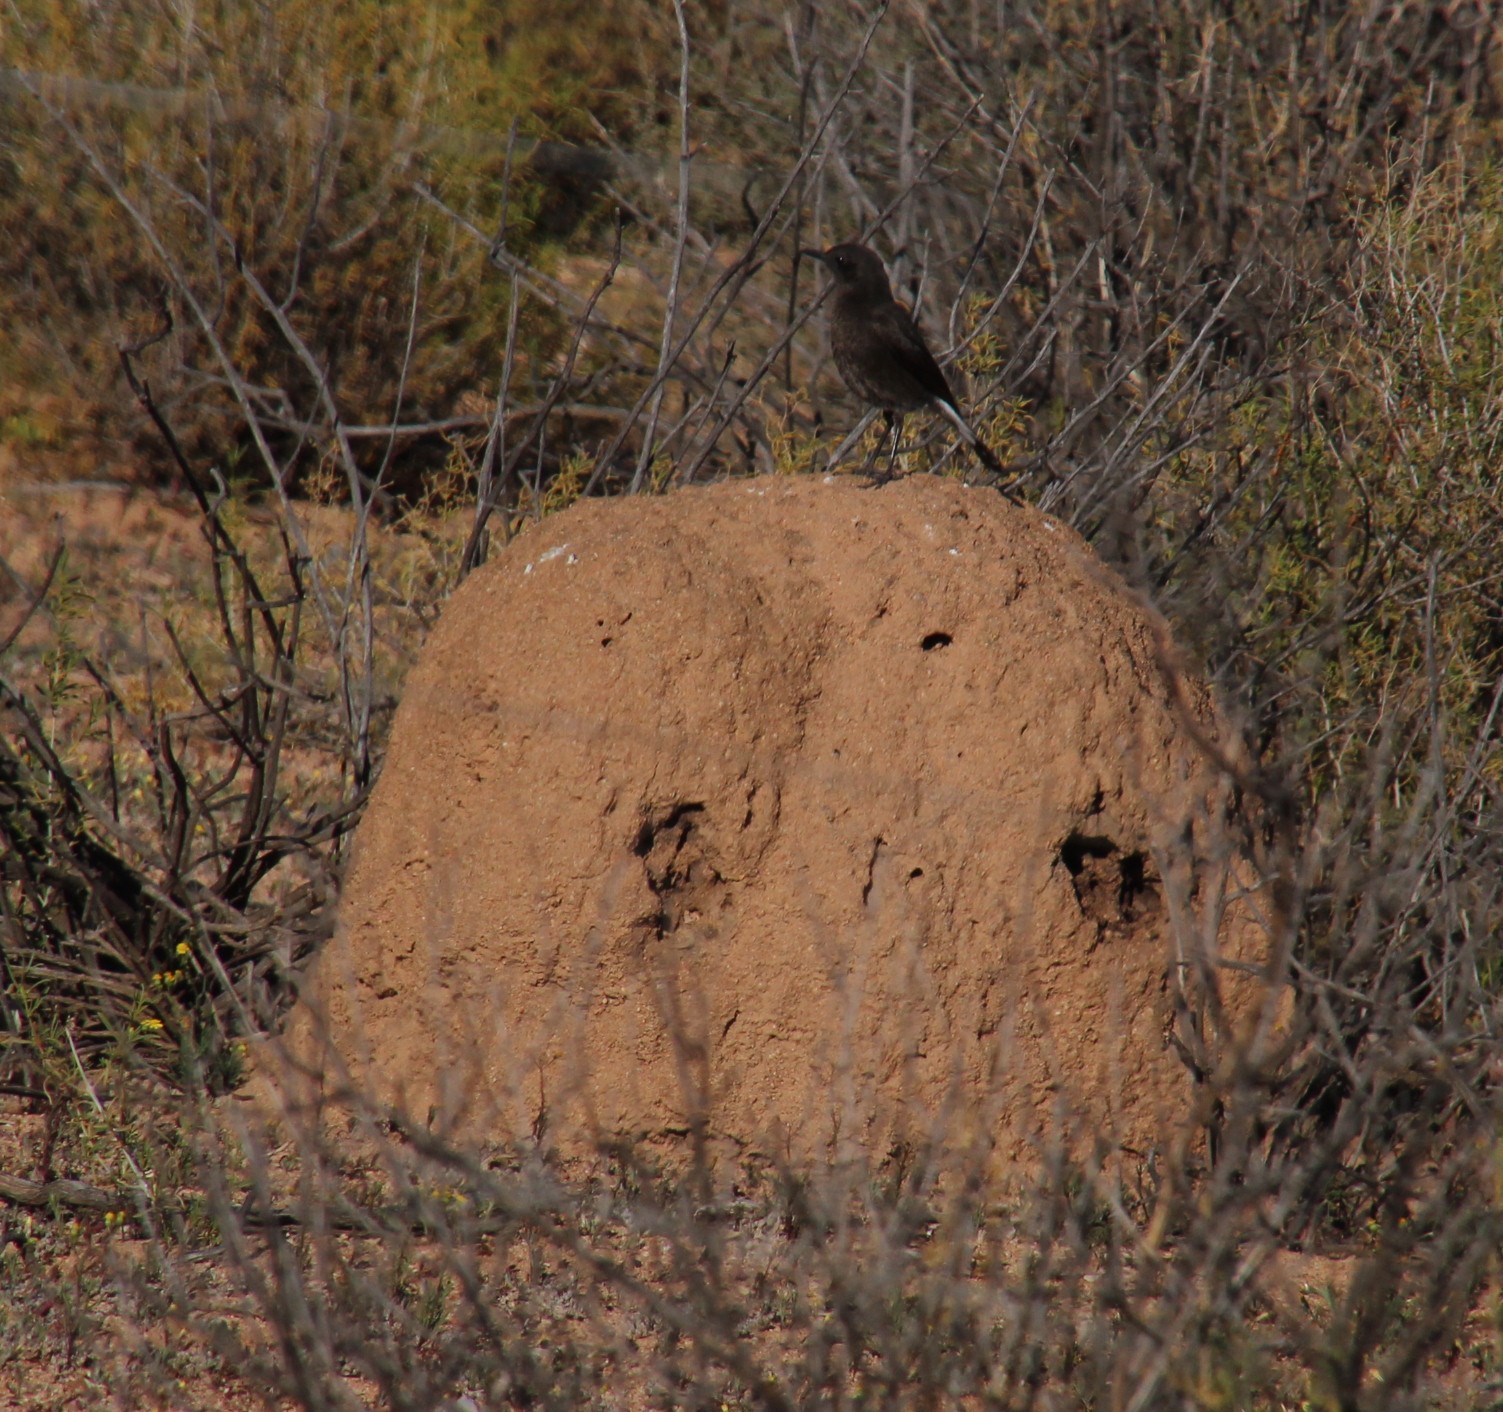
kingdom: Animalia
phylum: Chordata
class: Aves
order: Passeriformes
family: Muscicapidae
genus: Myrmecocichla
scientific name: Myrmecocichla formicivora
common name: Ant-eating chat
